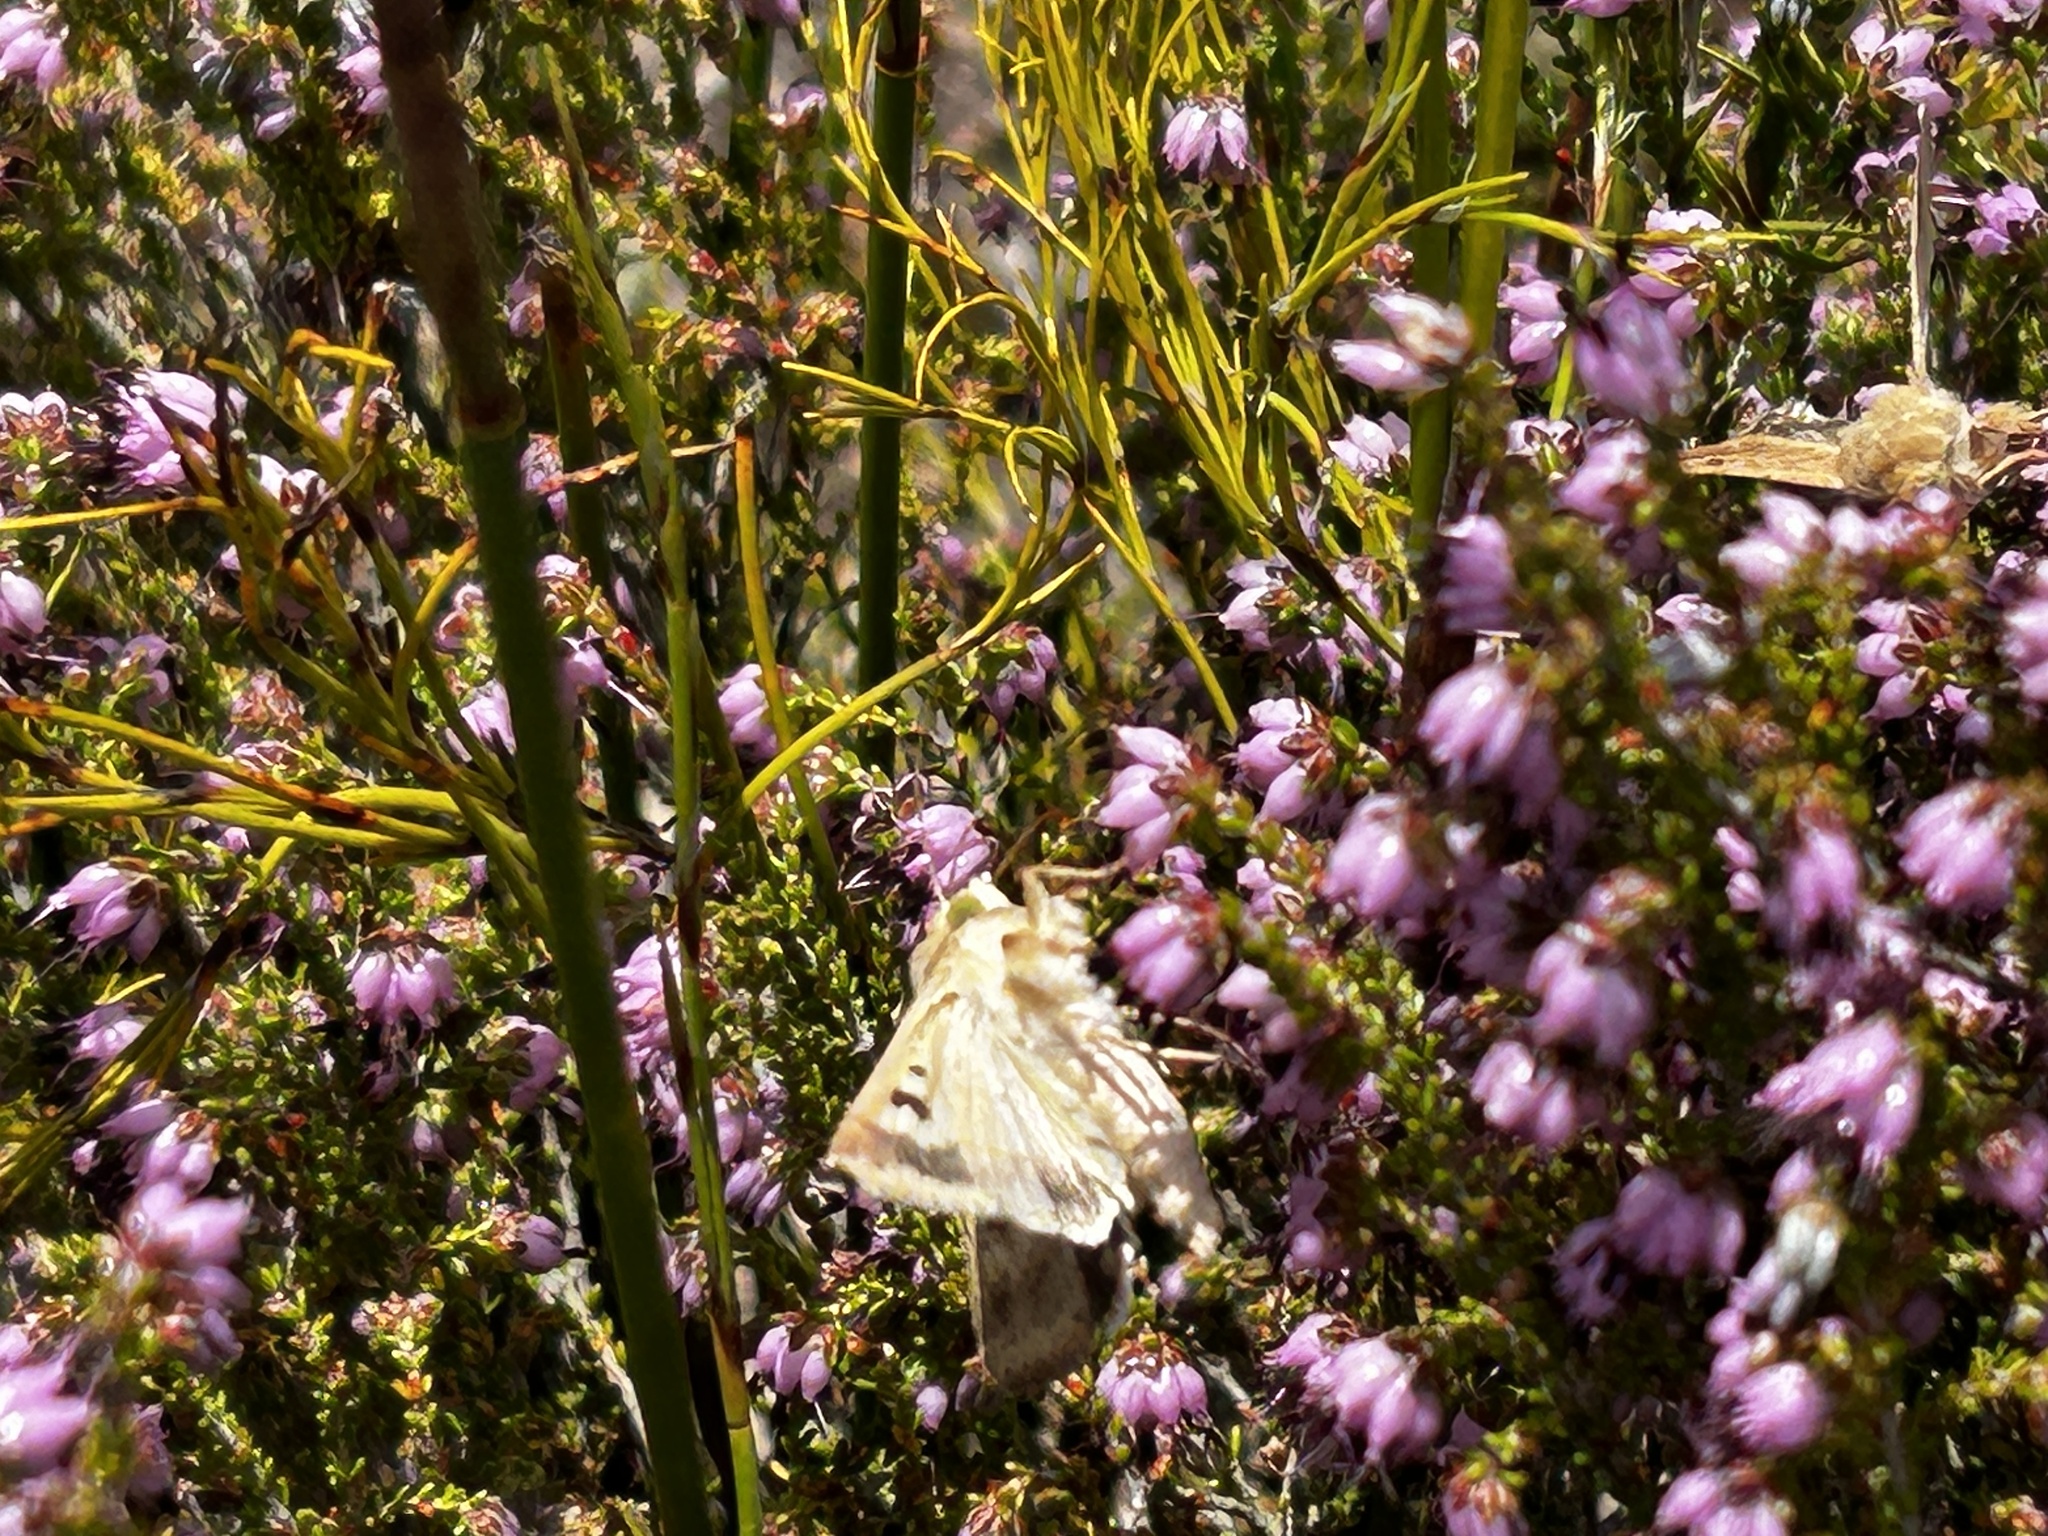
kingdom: Animalia
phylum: Arthropoda
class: Insecta
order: Lepidoptera
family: Noctuidae
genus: Helicoverpa
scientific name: Helicoverpa armigera
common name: Cotton bollworm
